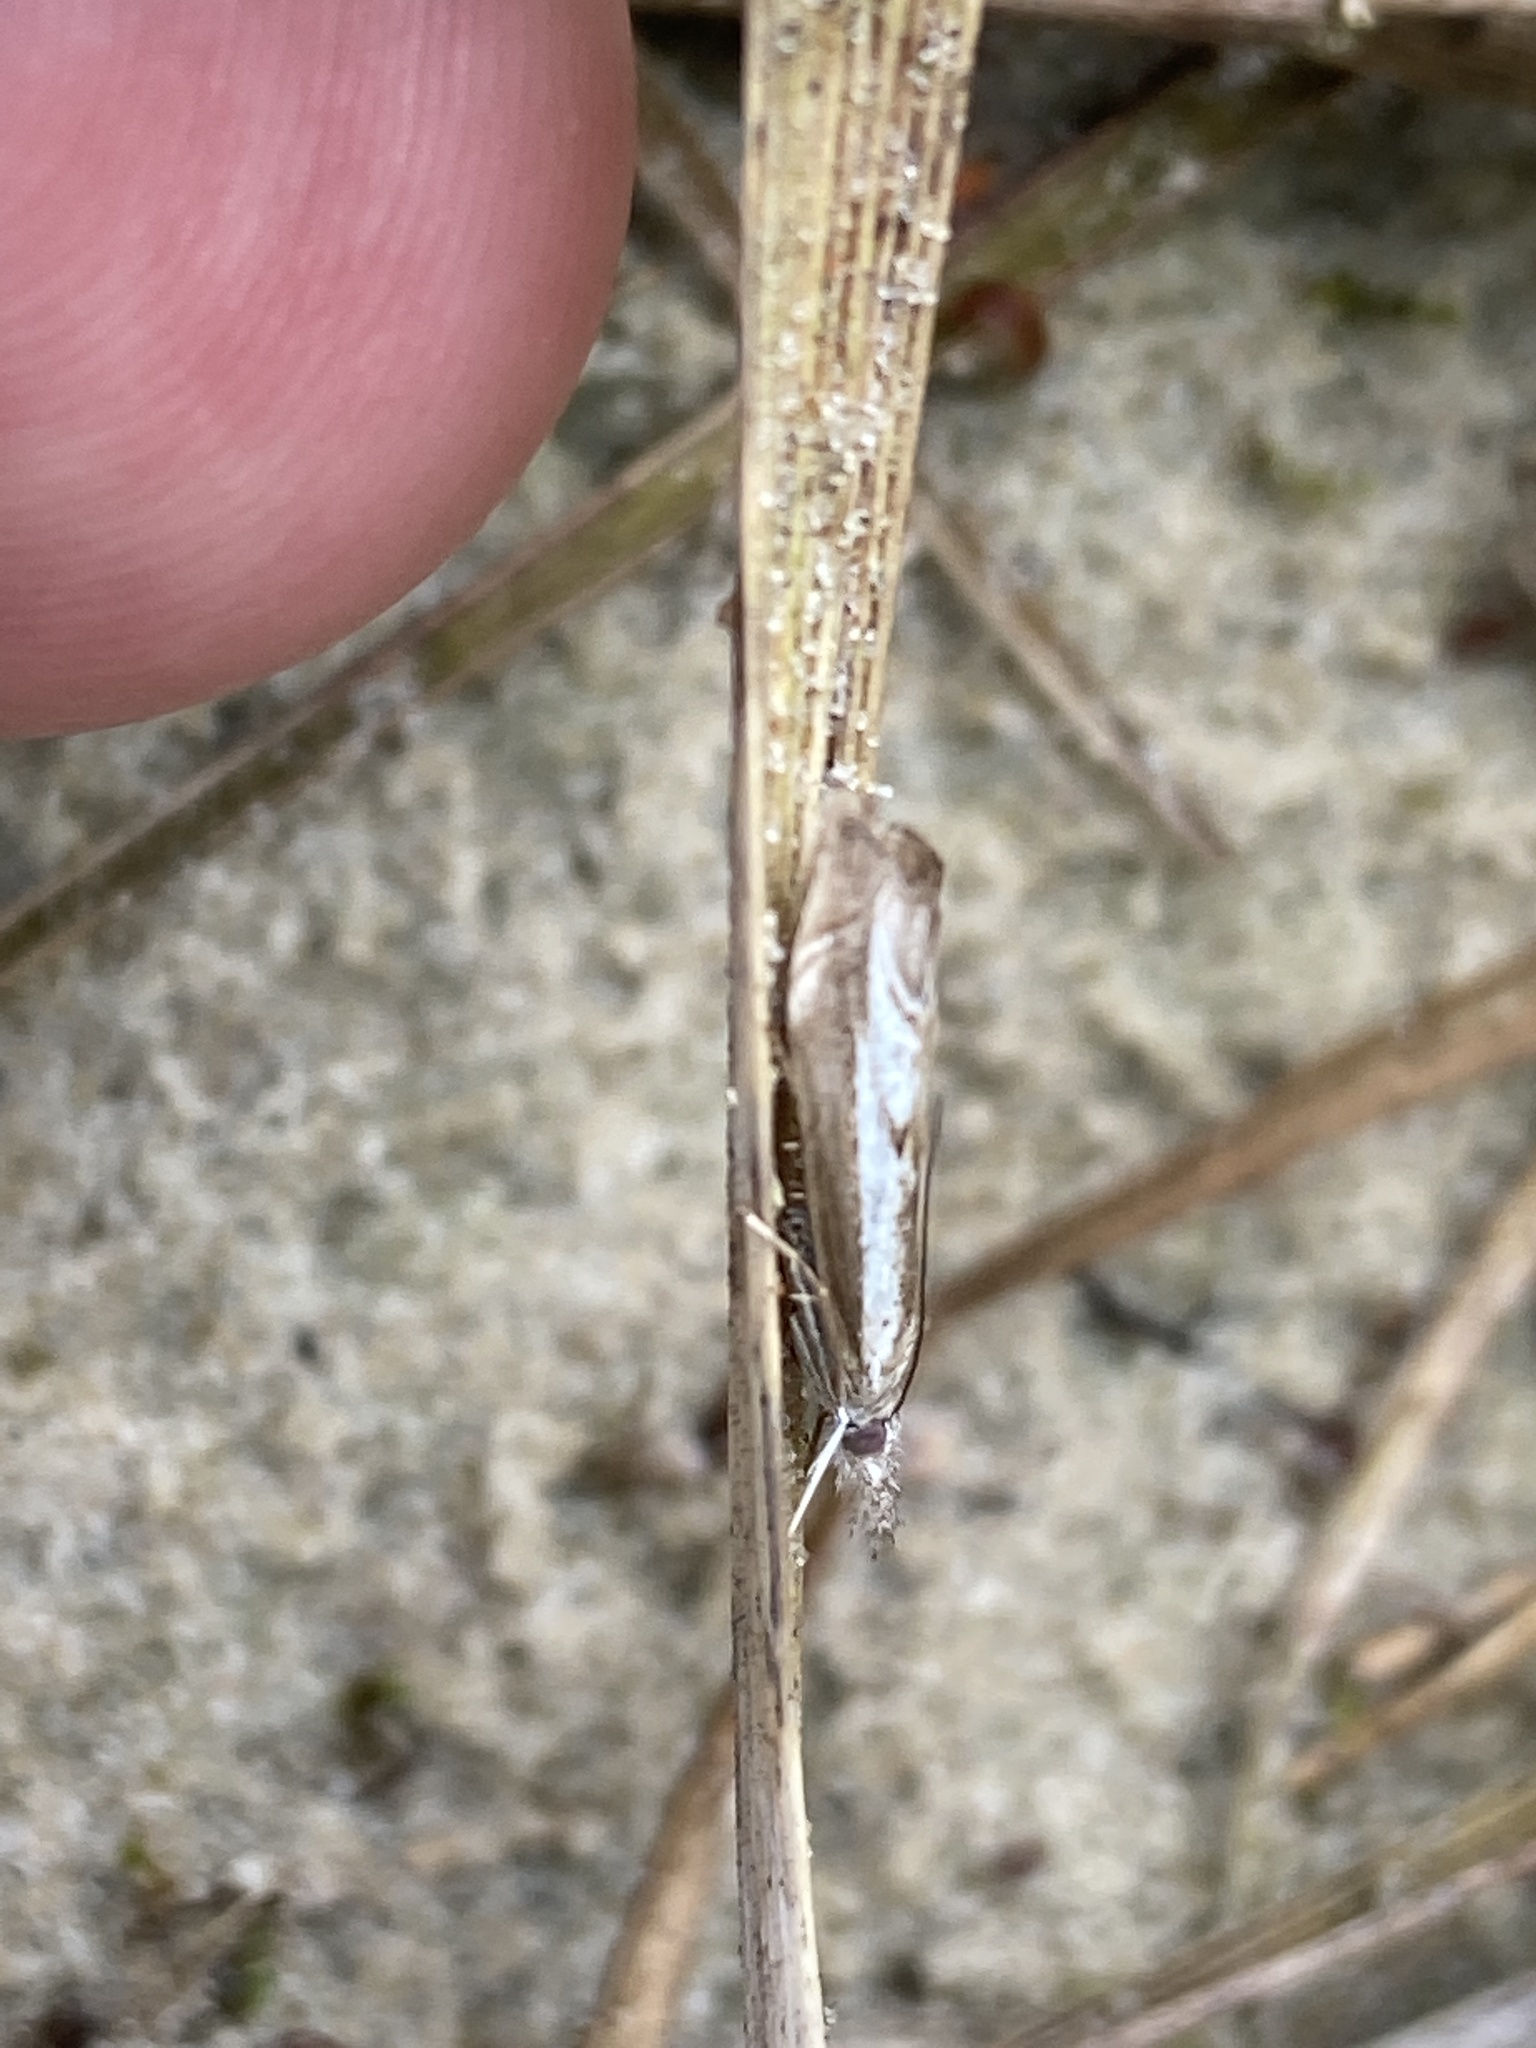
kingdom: Animalia
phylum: Arthropoda
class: Insecta
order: Lepidoptera
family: Crambidae
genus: Agriphila
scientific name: Agriphila geniculea
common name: Elbow-stripe grass-veneer
